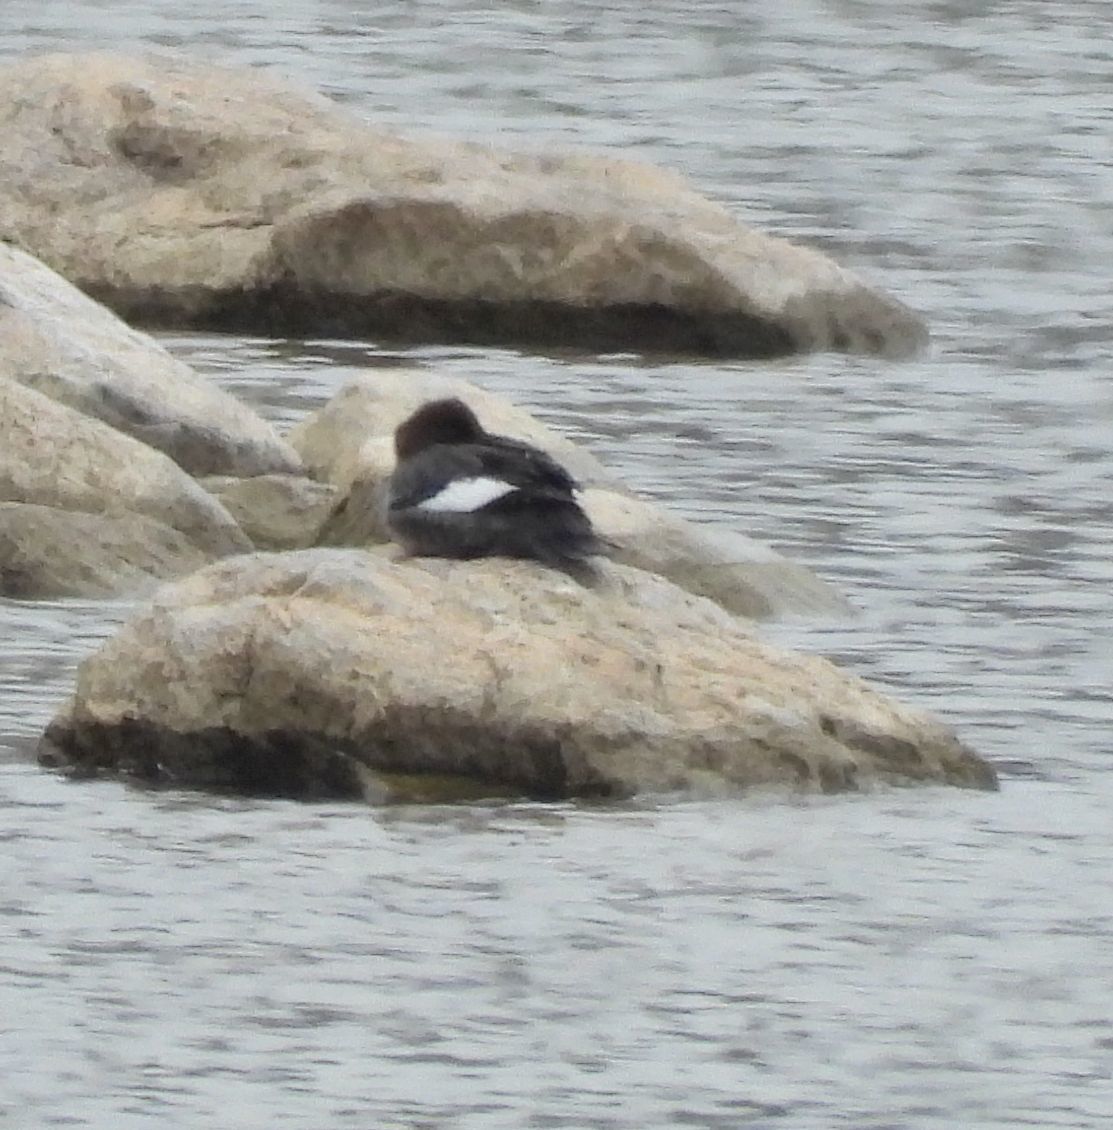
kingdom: Animalia
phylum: Chordata
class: Aves
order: Anseriformes
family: Anatidae
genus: Bucephala
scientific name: Bucephala clangula
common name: Common goldeneye
